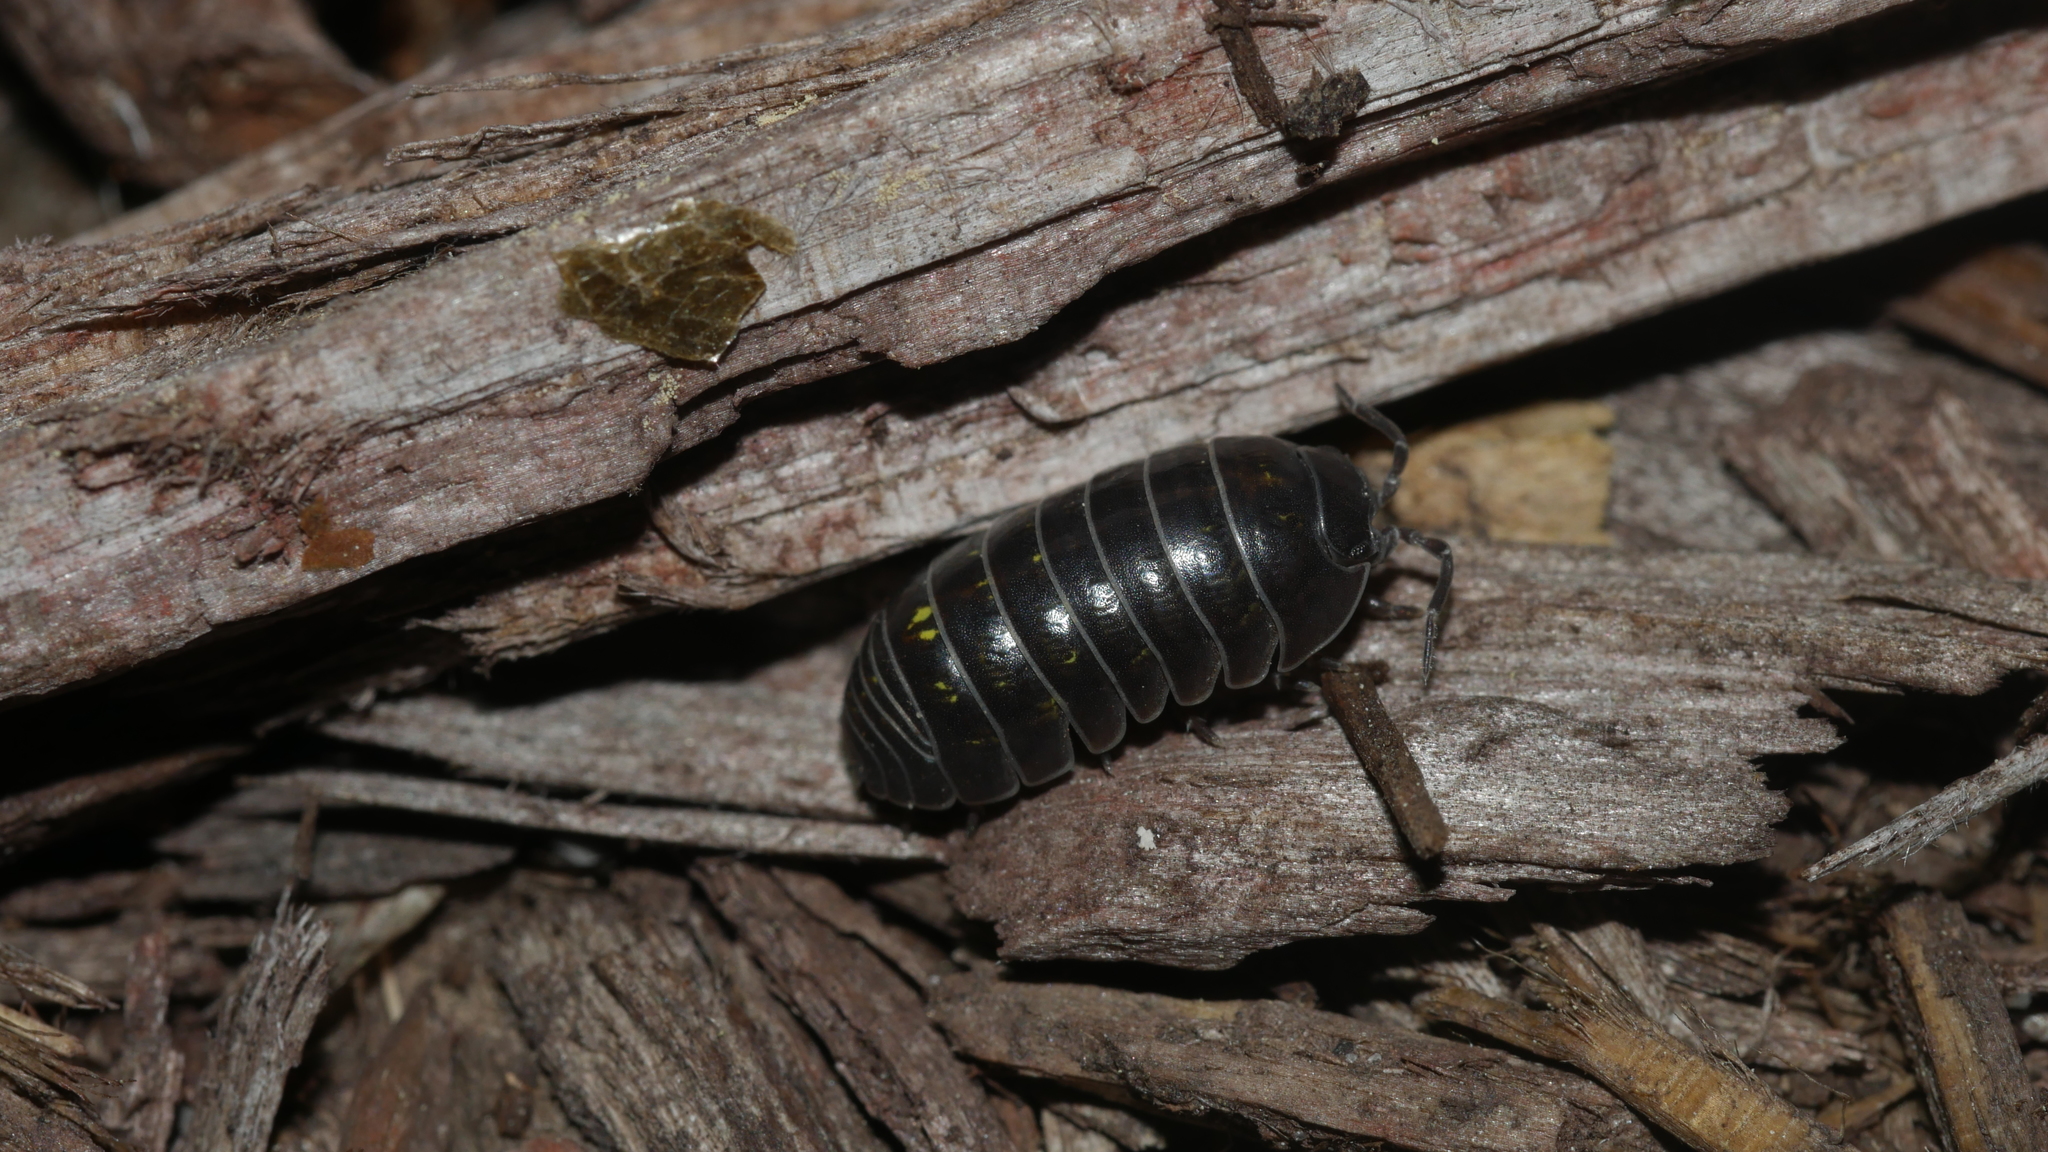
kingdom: Animalia
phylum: Arthropoda
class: Malacostraca
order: Isopoda
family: Armadillidiidae
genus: Armadillidium
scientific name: Armadillidium vulgare
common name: Common pill woodlouse
